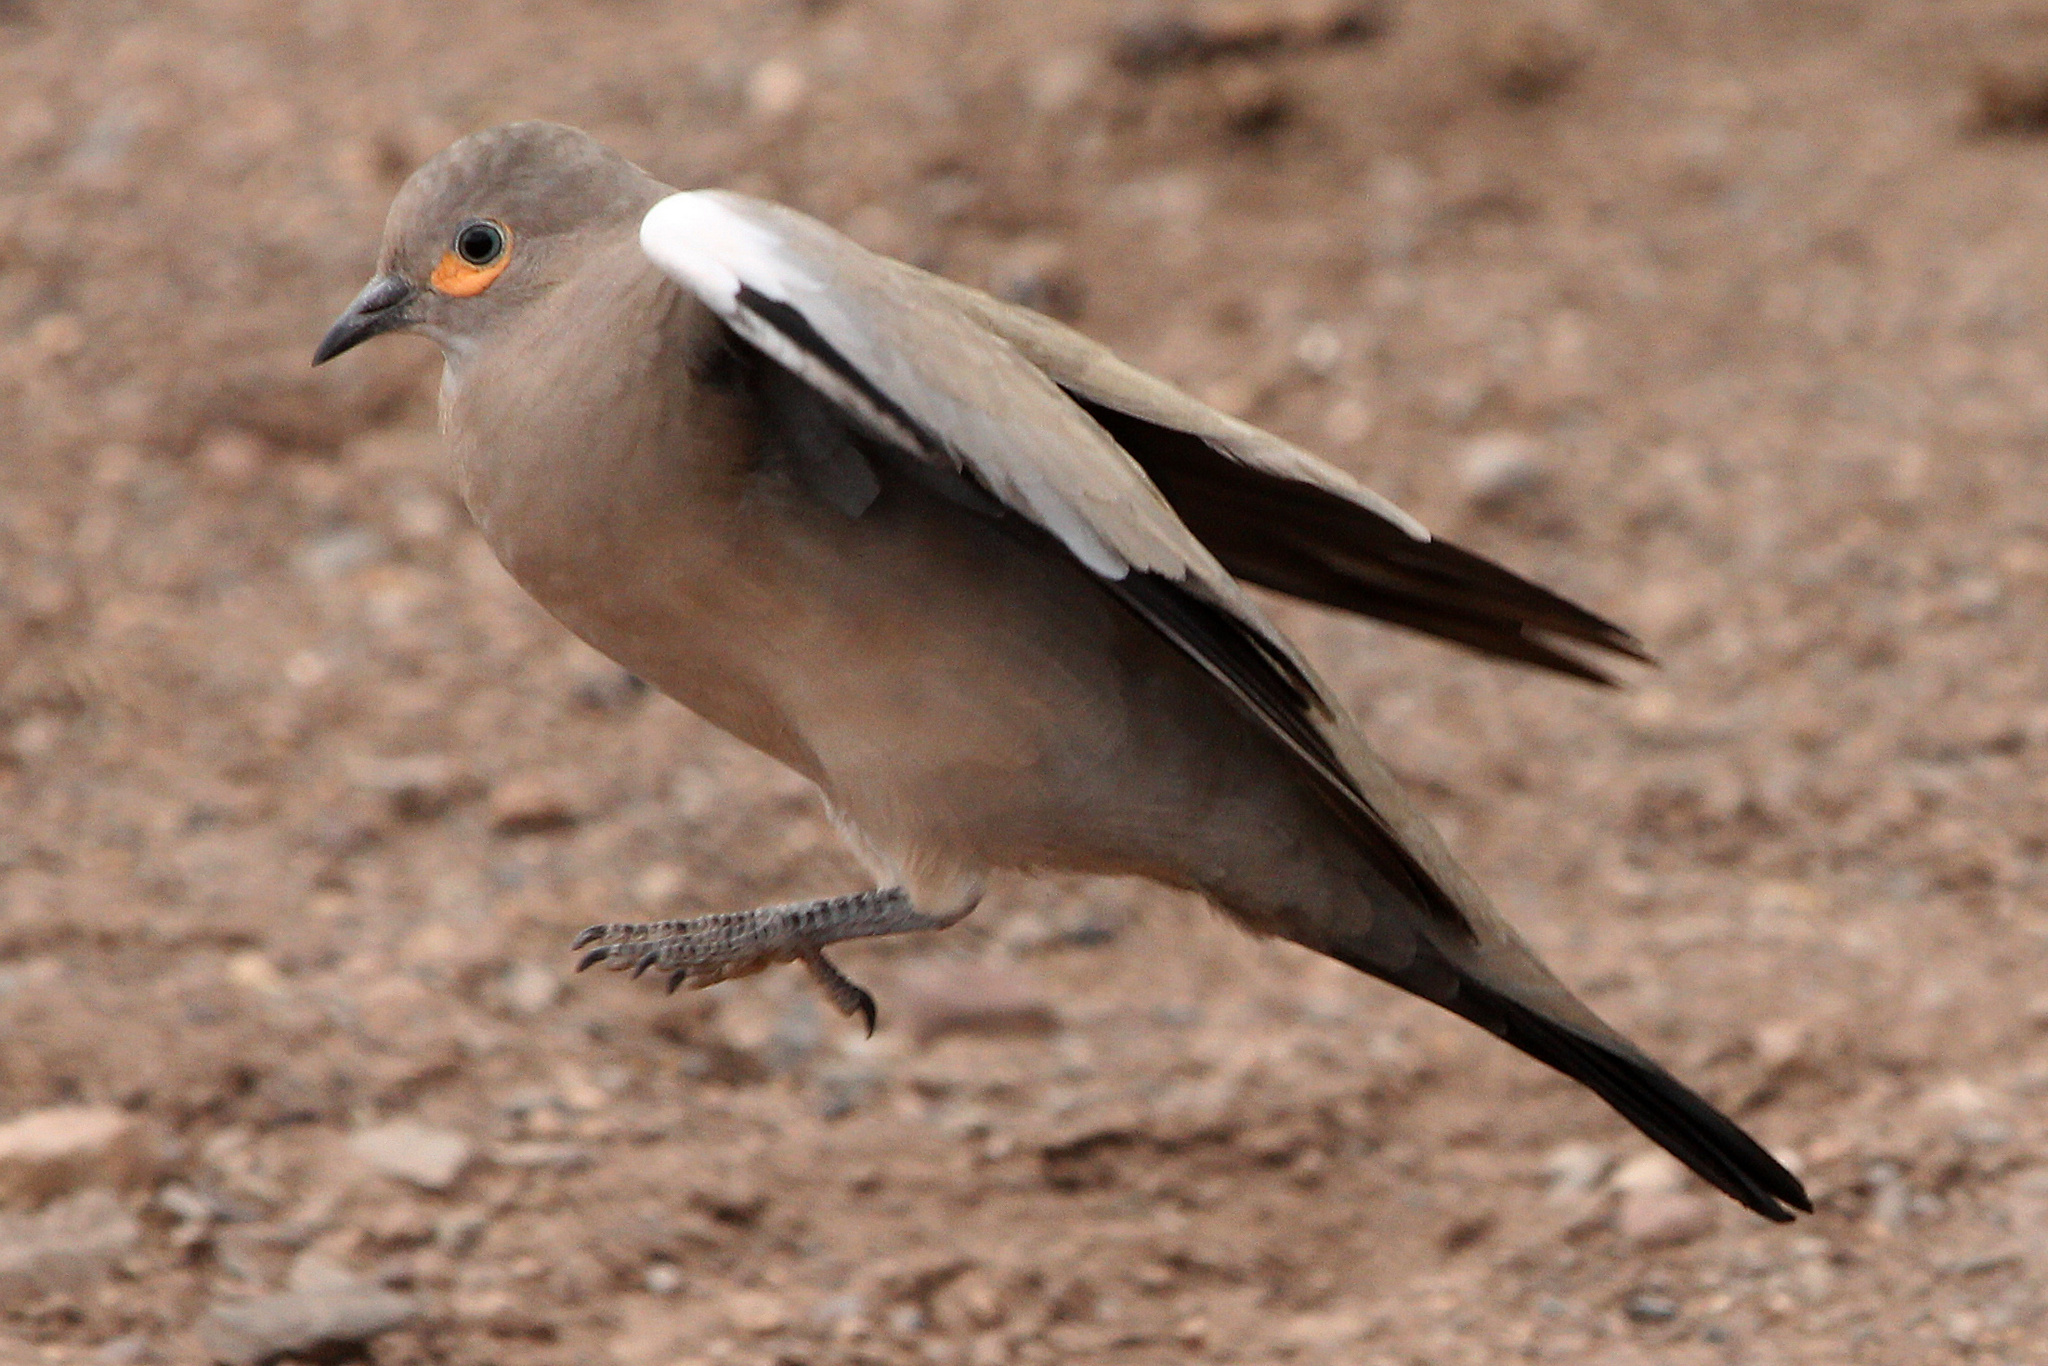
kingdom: Animalia
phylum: Chordata
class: Aves
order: Columbiformes
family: Columbidae
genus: Metriopelia
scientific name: Metriopelia melanoptera
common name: Black-winged ground dove
